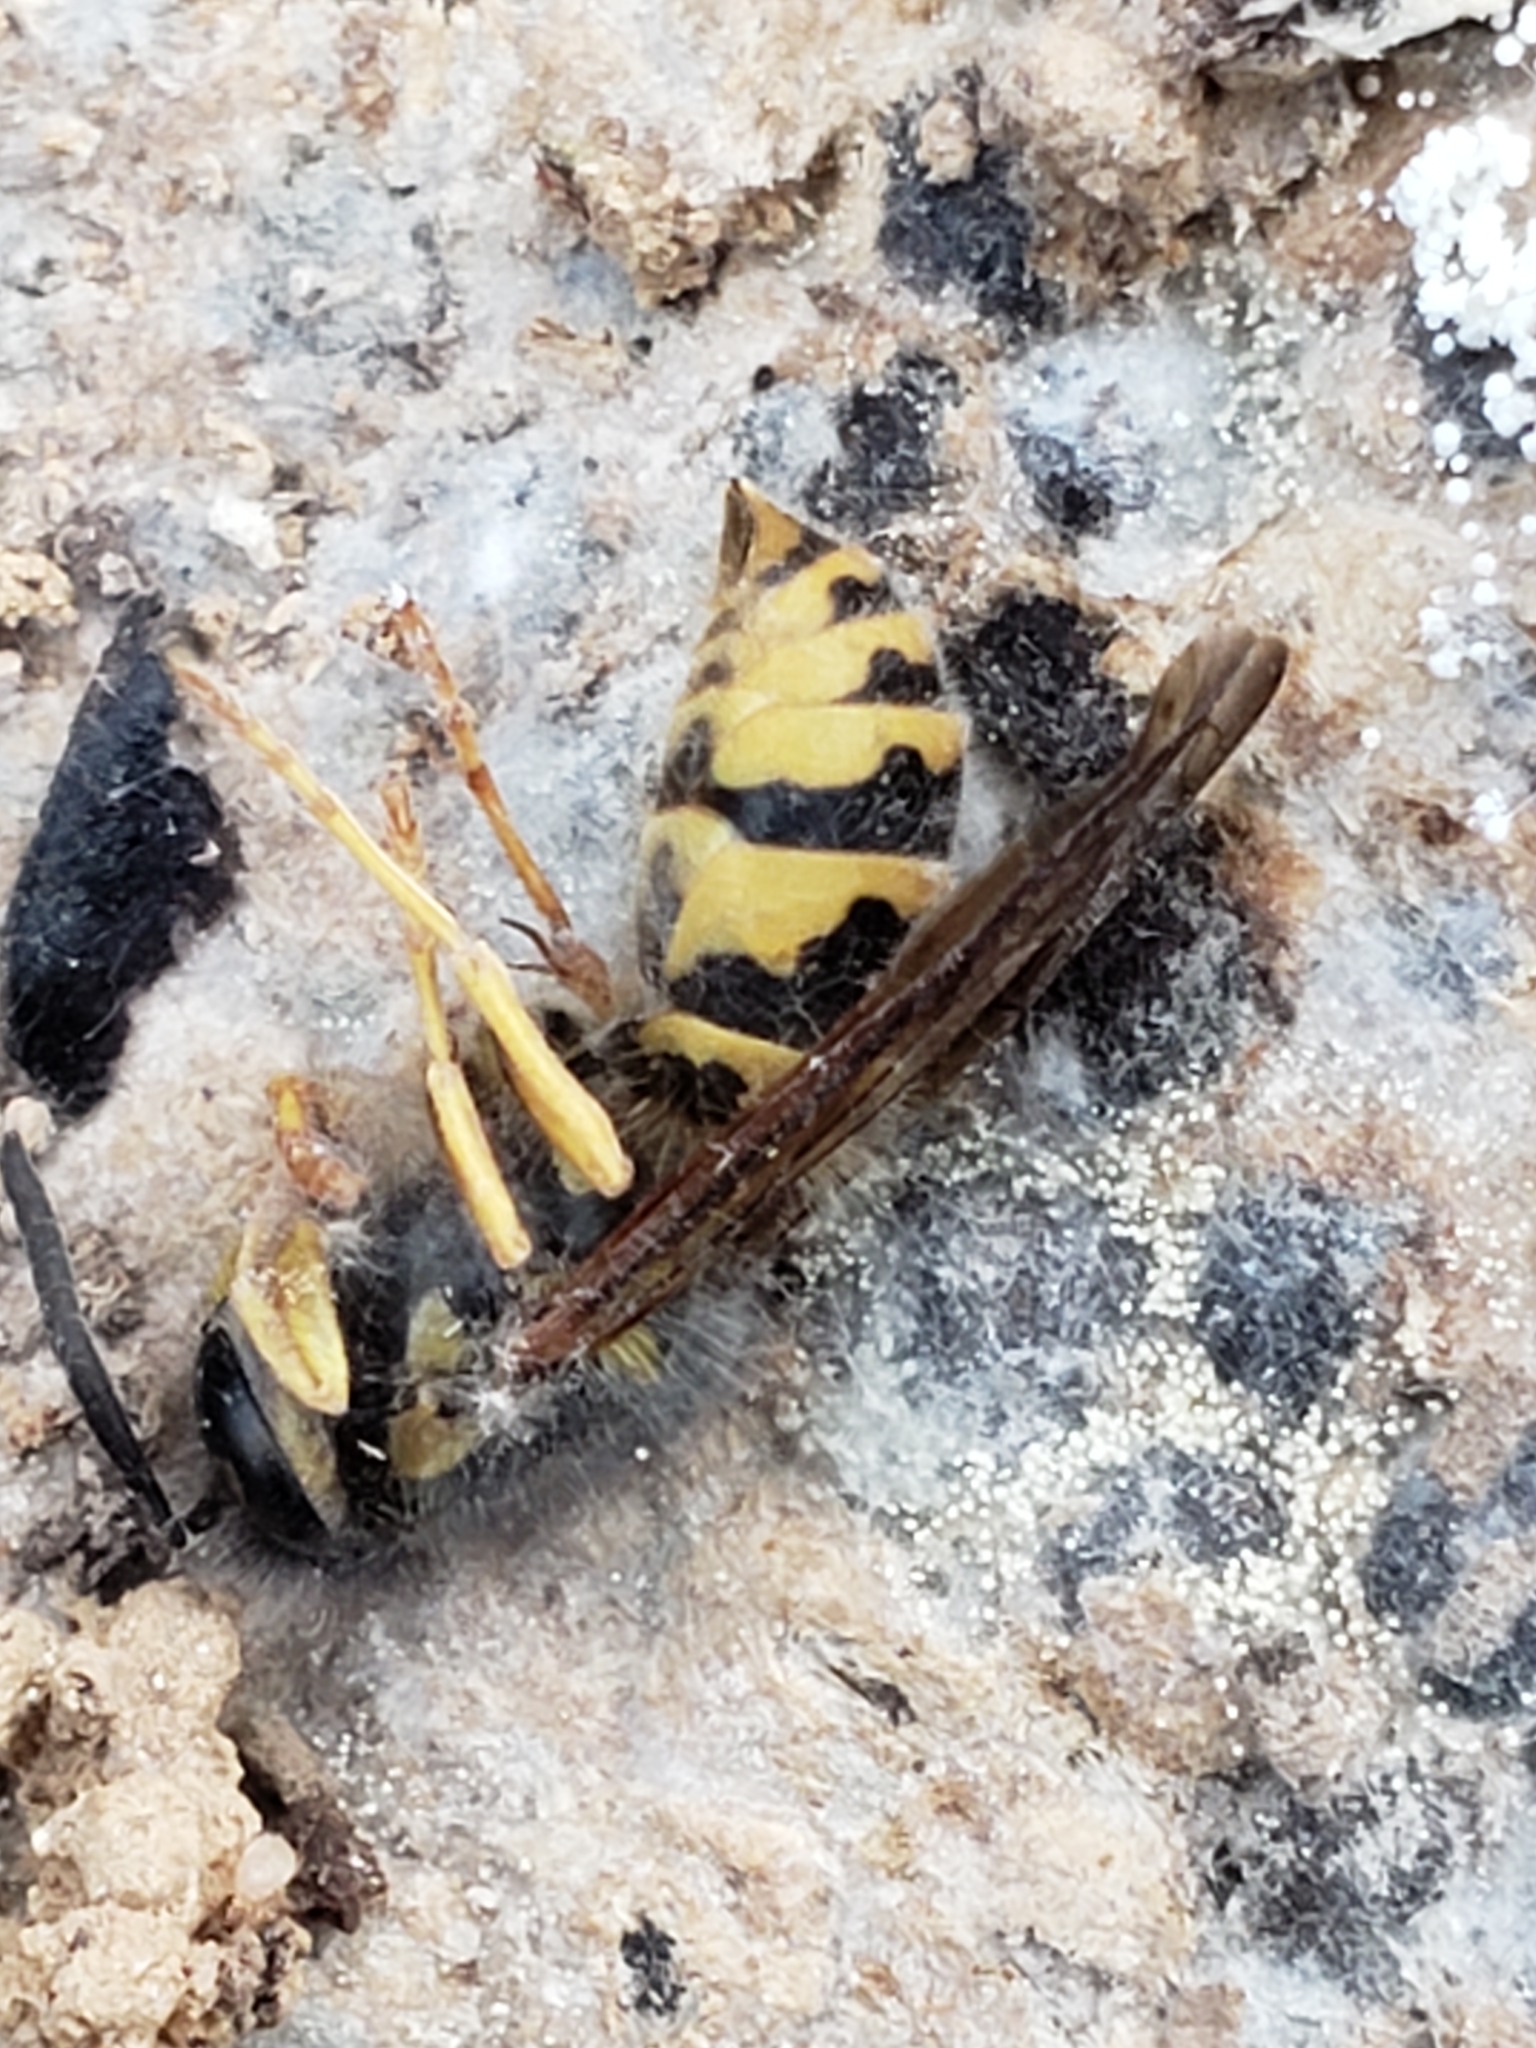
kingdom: Animalia
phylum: Arthropoda
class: Insecta
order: Hymenoptera
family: Vespidae
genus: Vespula
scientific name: Vespula maculifrons
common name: Eastern yellowjacket
